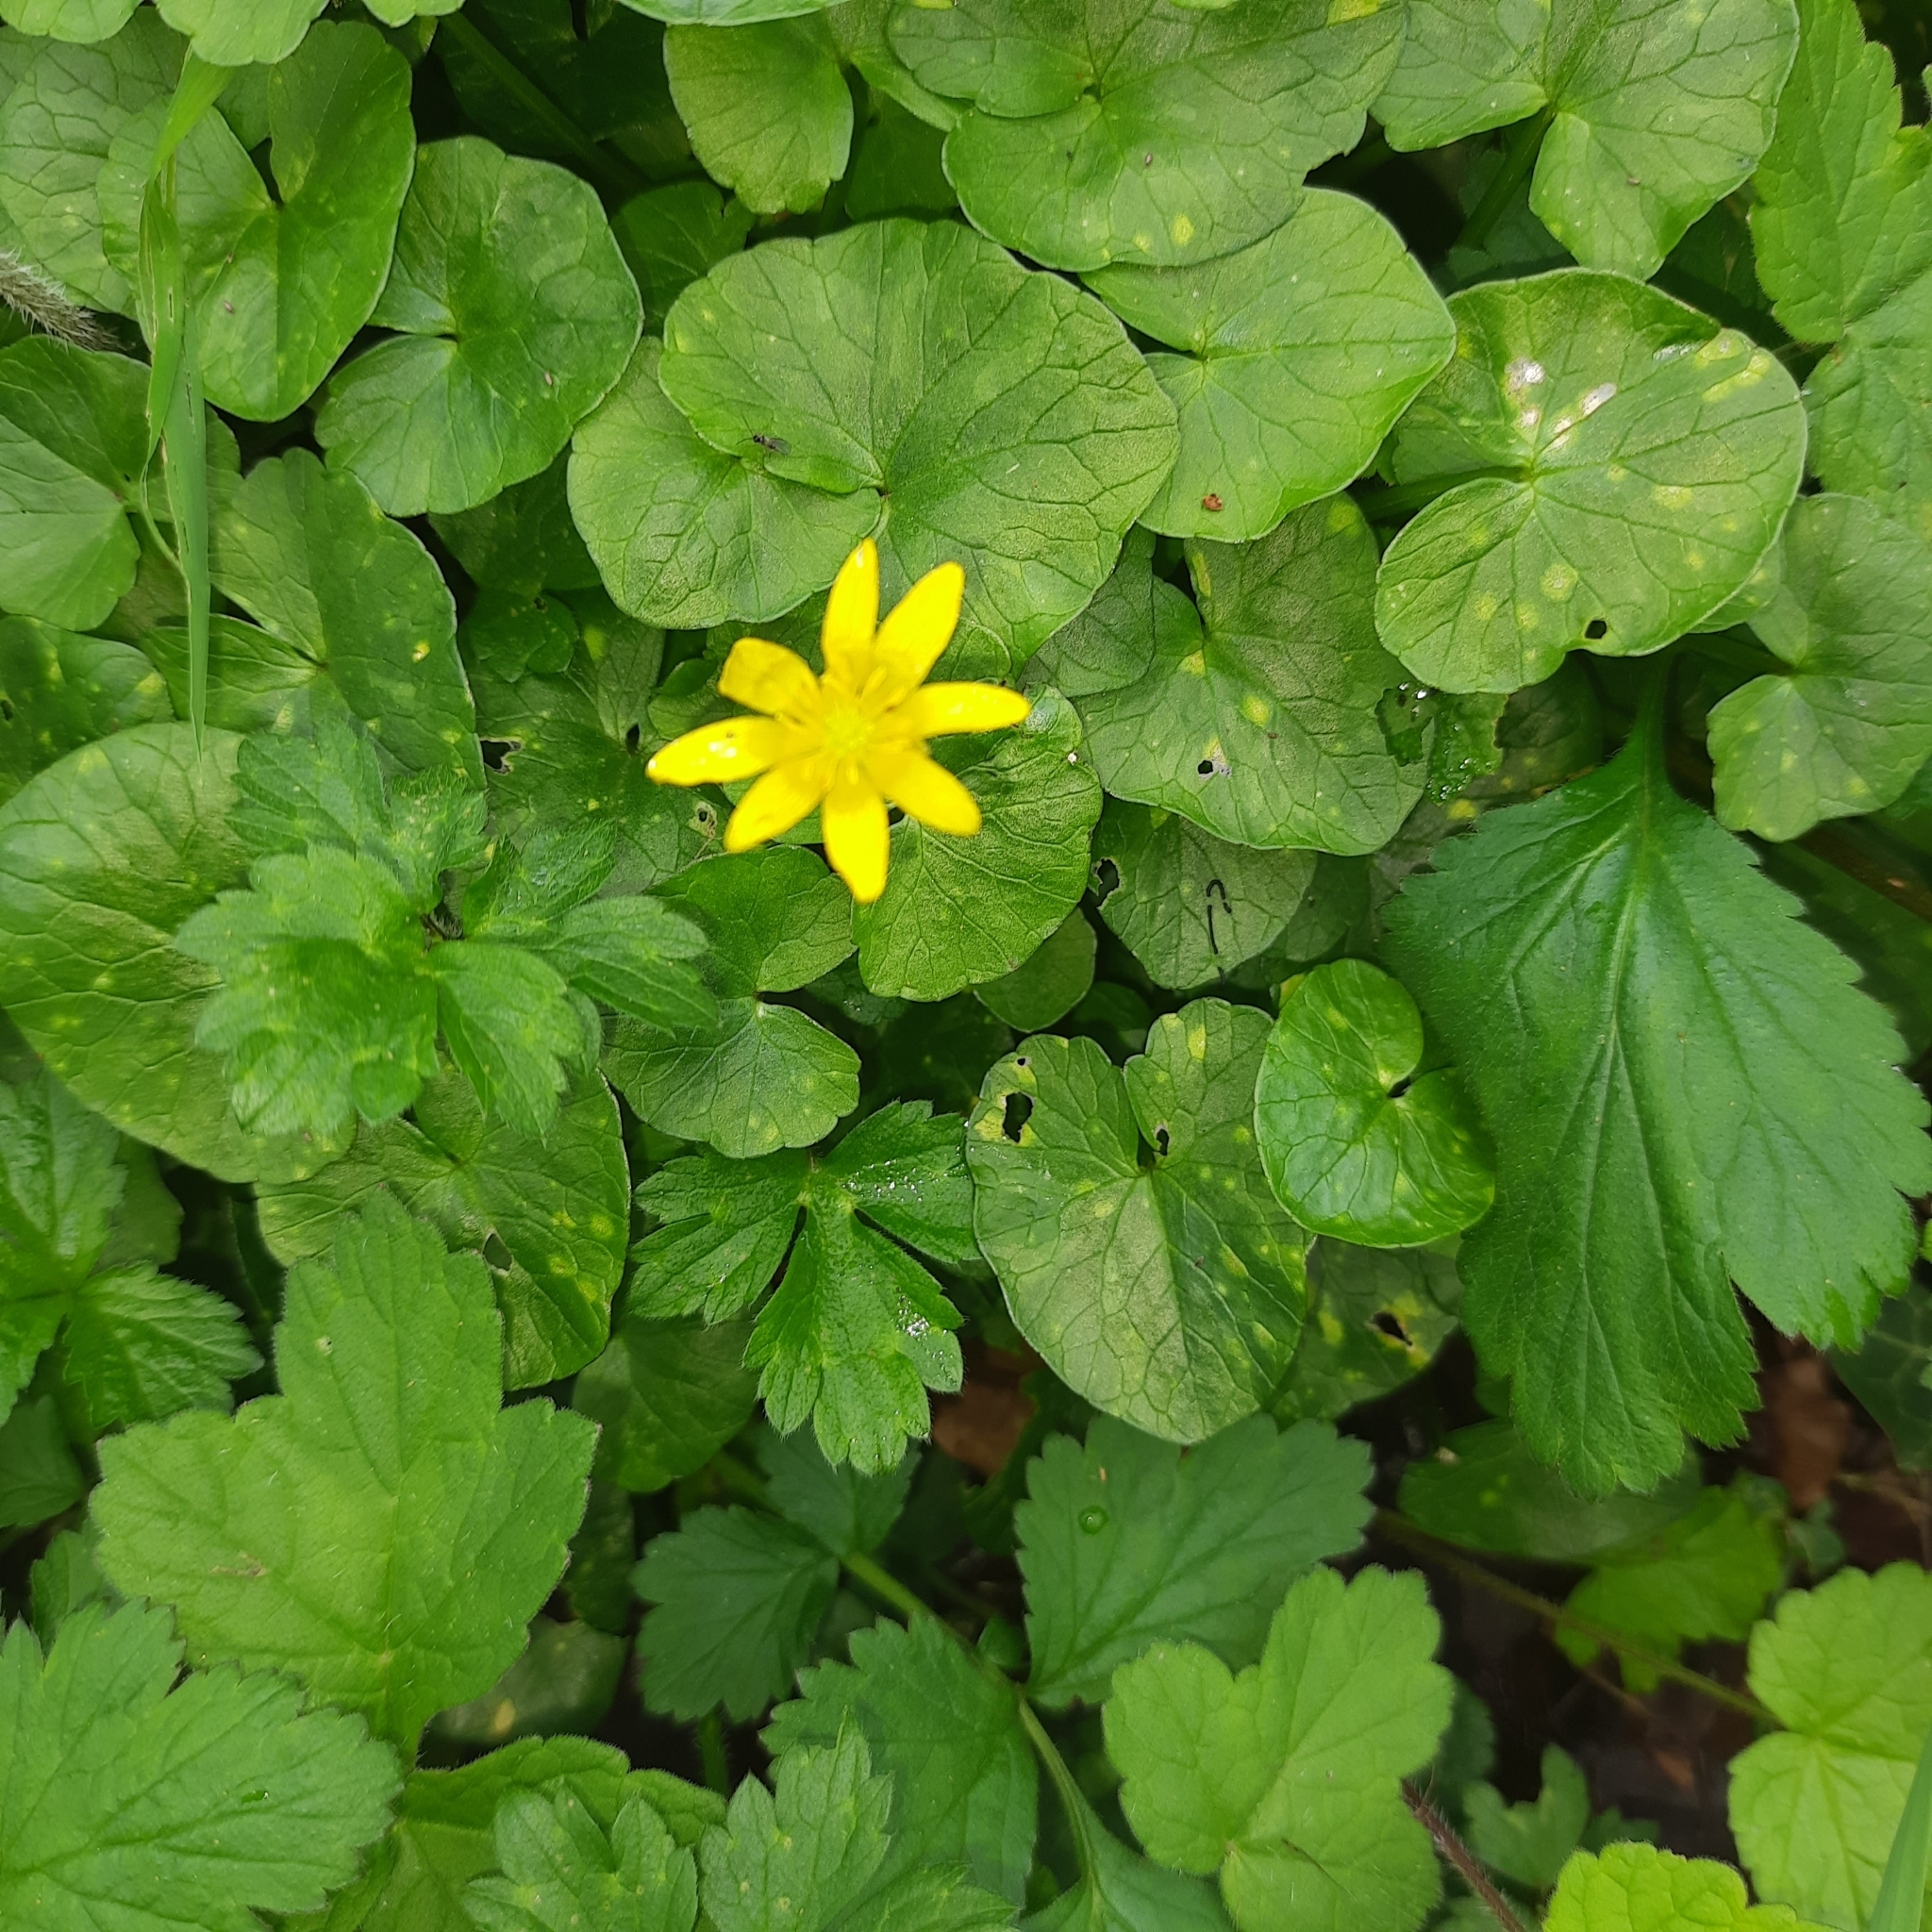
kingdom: Plantae
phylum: Tracheophyta
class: Magnoliopsida
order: Ranunculales
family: Ranunculaceae
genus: Ficaria
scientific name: Ficaria verna
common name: Lesser celandine
